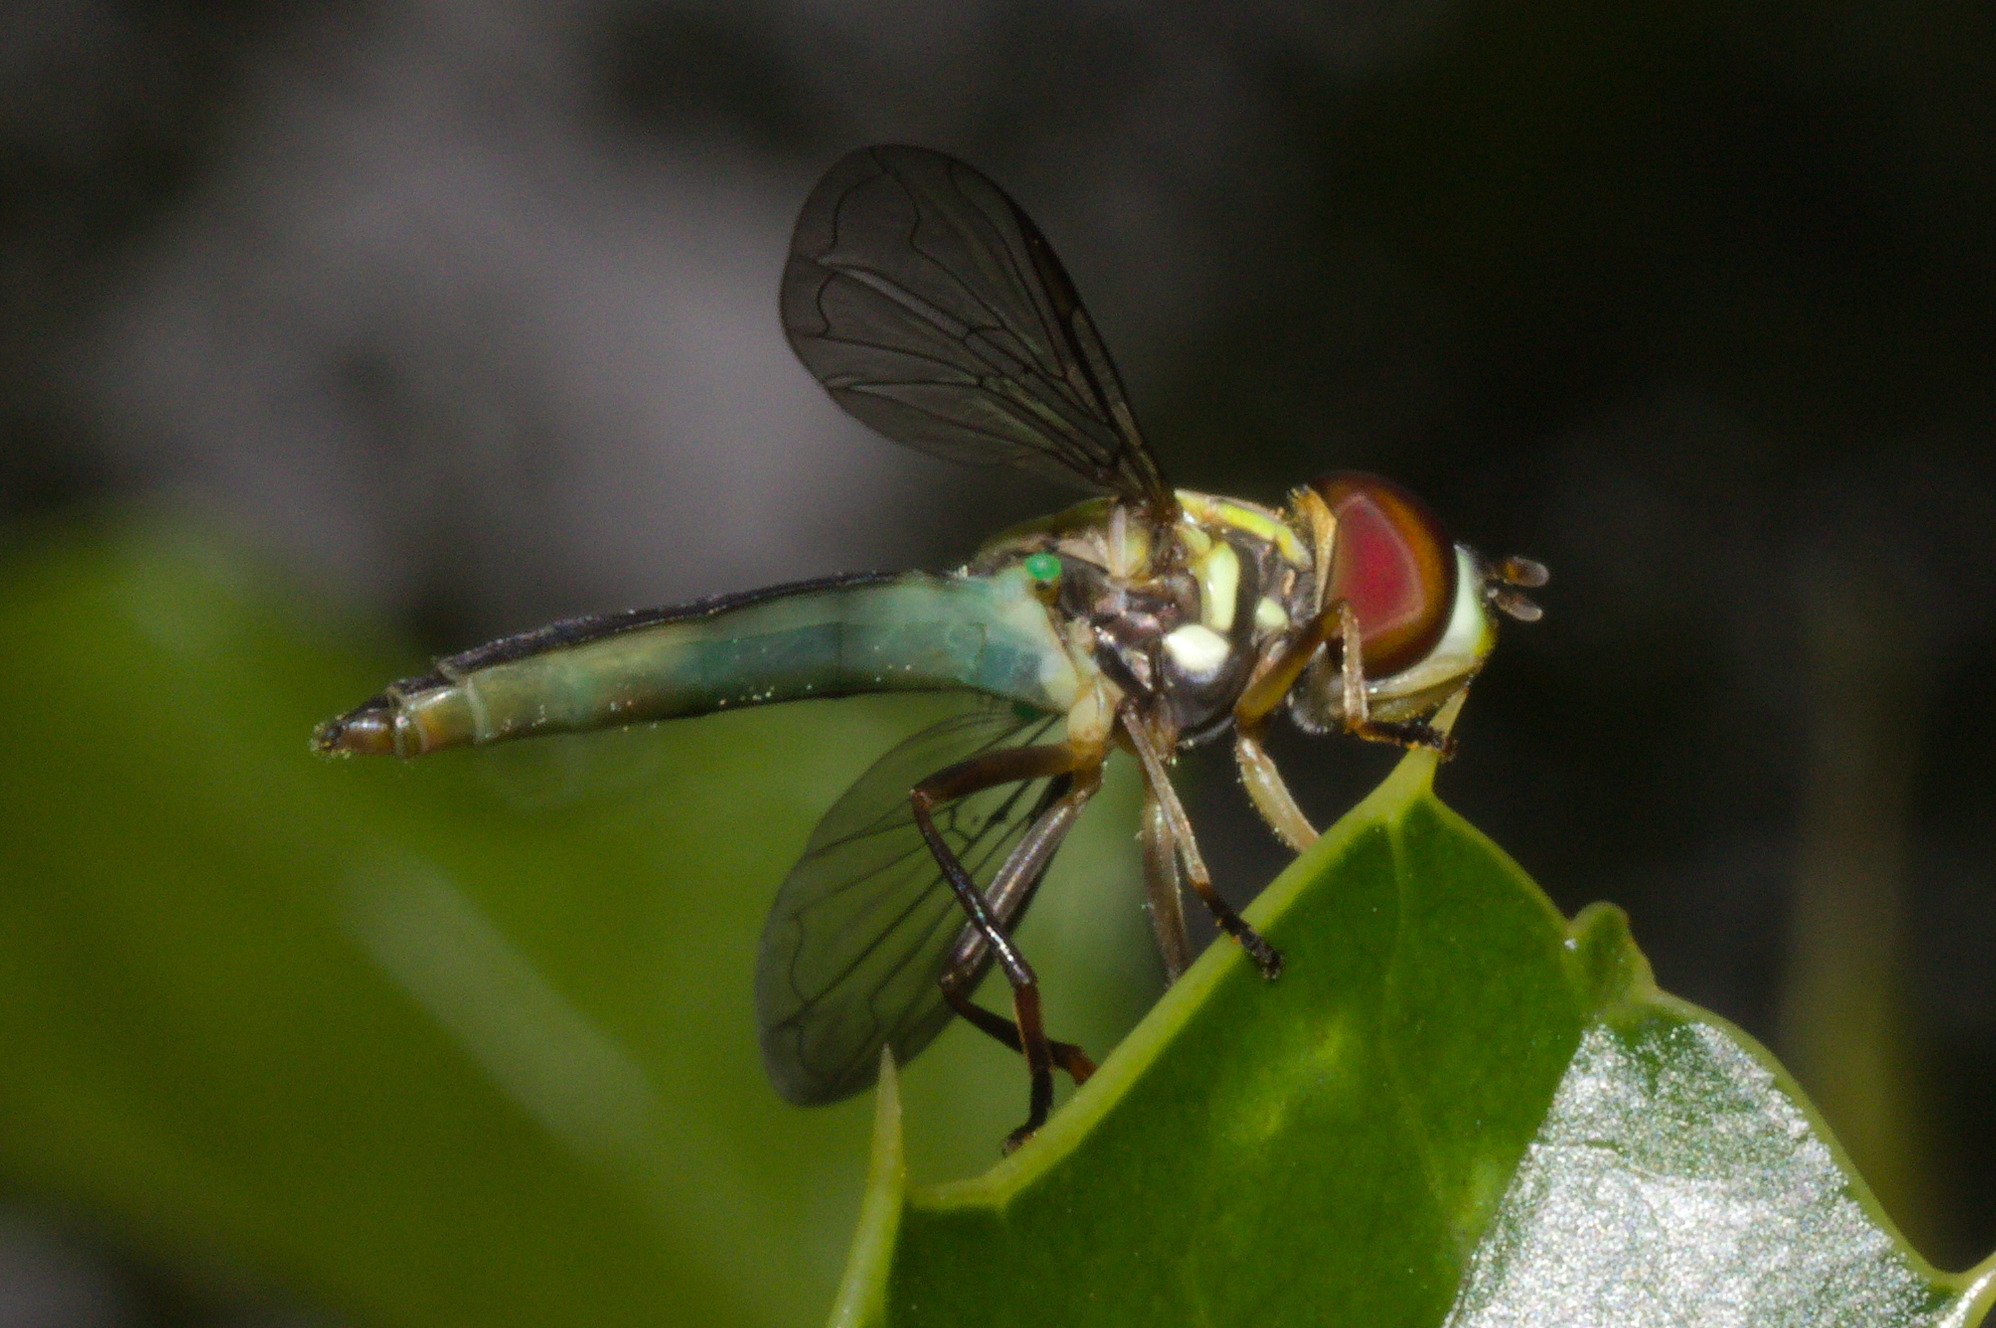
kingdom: Animalia
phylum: Arthropoda
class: Insecta
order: Diptera
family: Syrphidae
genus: Toxomerus
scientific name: Toxomerus procrastinatus
